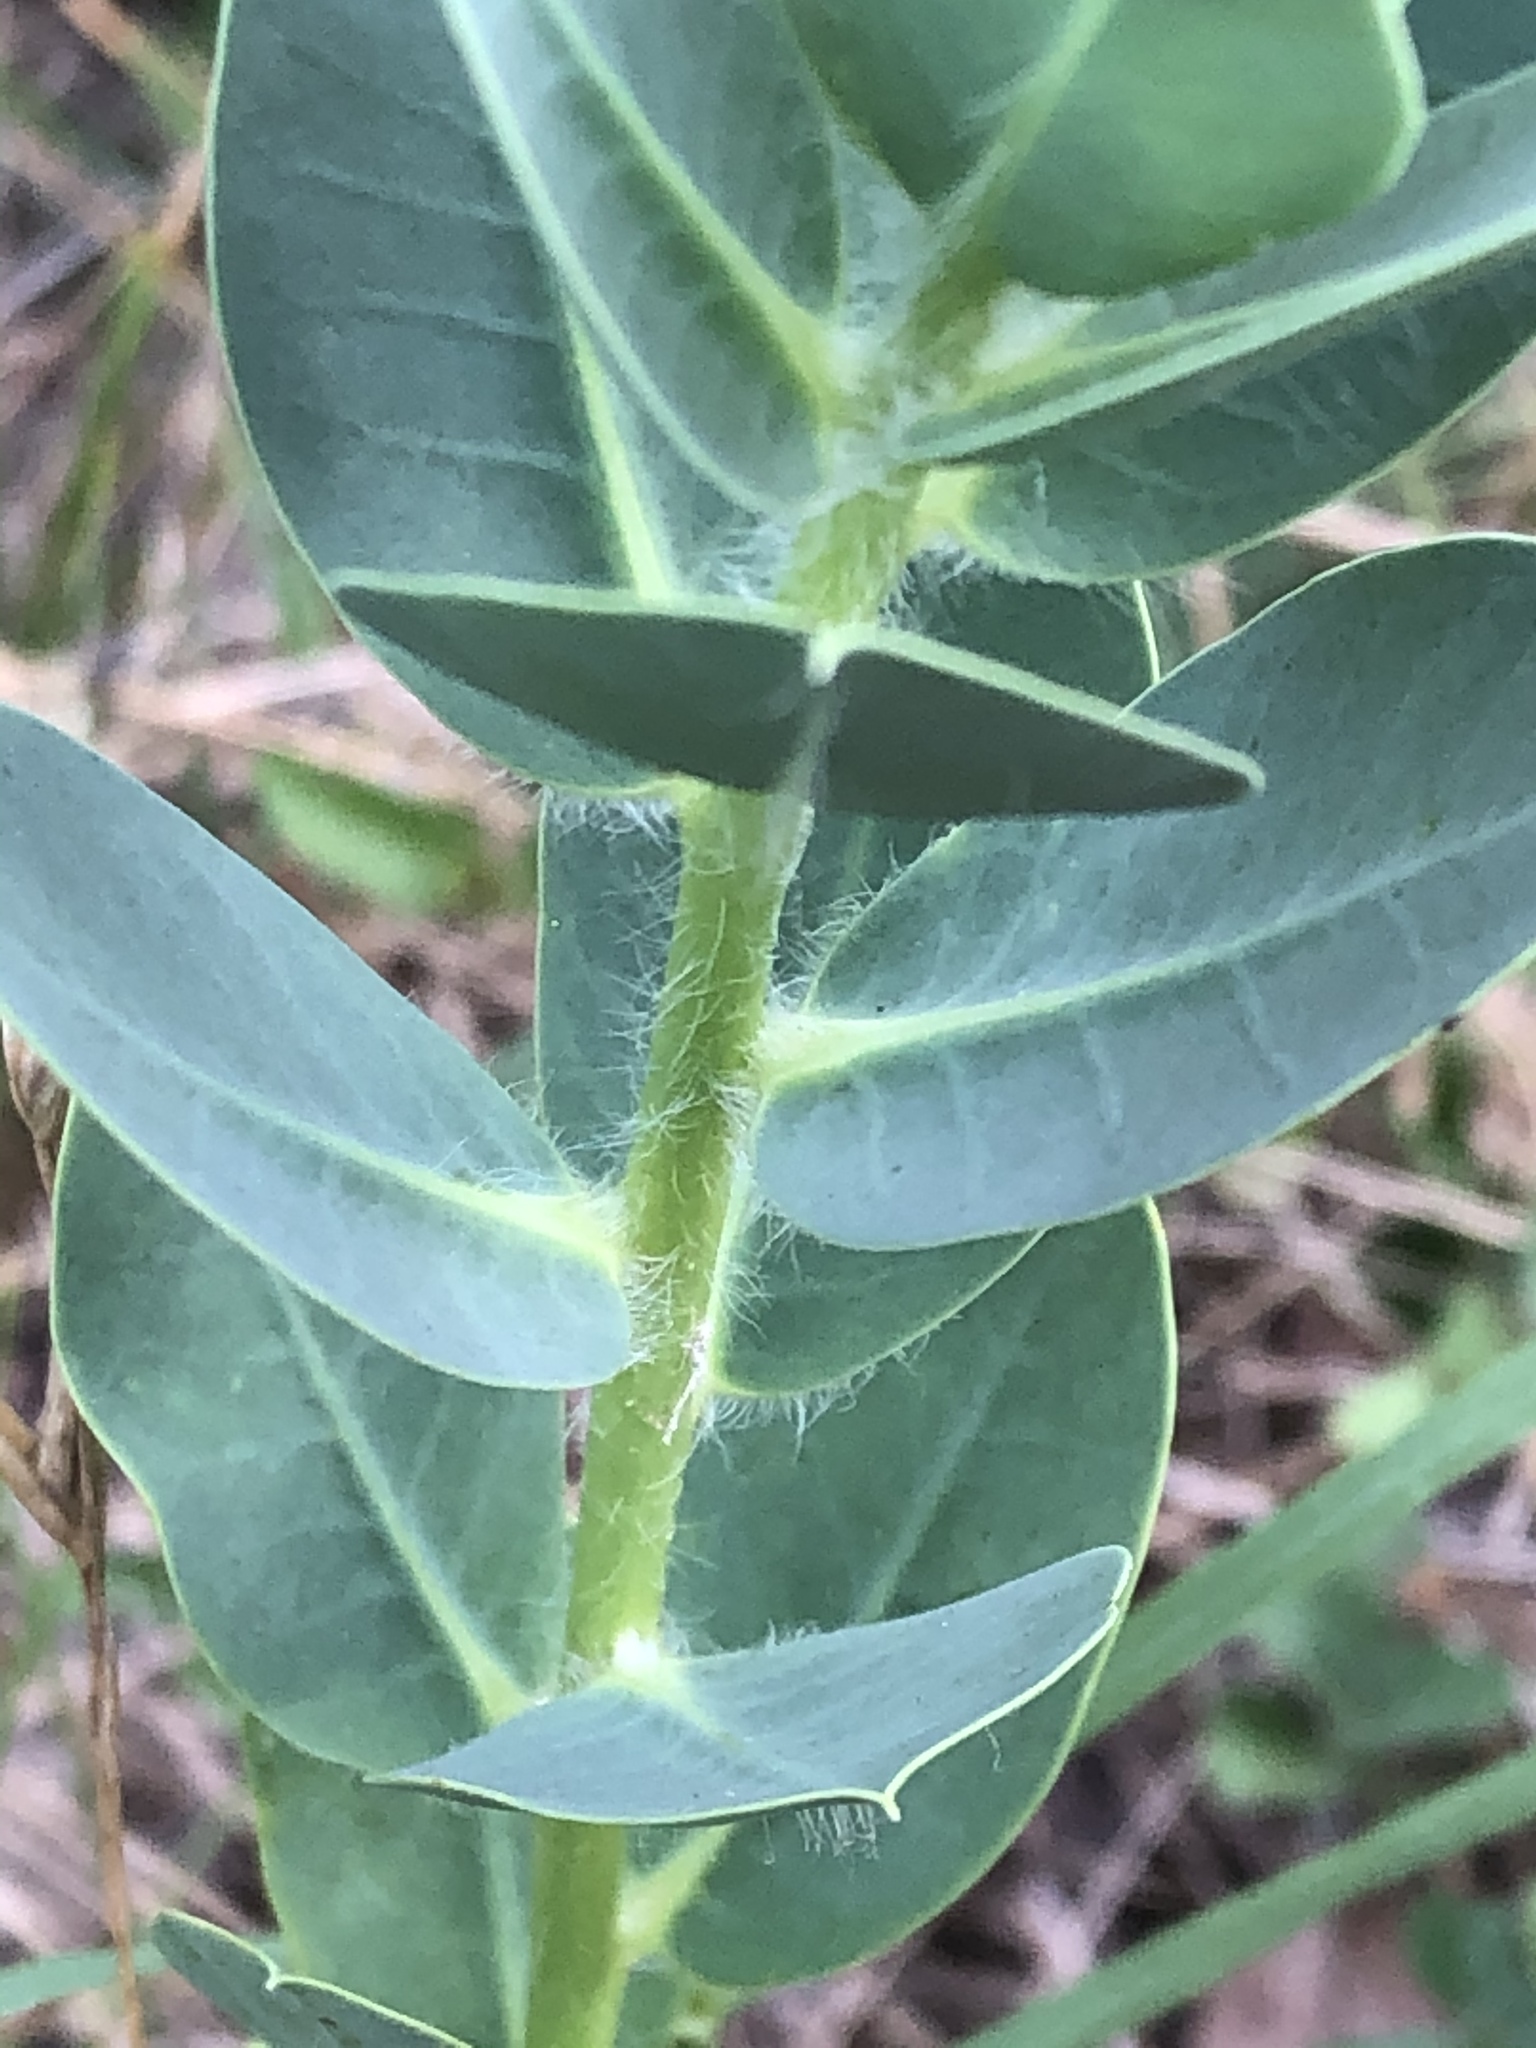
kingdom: Plantae
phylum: Tracheophyta
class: Magnoliopsida
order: Malpighiales
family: Euphorbiaceae
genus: Euphorbia
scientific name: Euphorbia marginata
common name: Ghostweed
